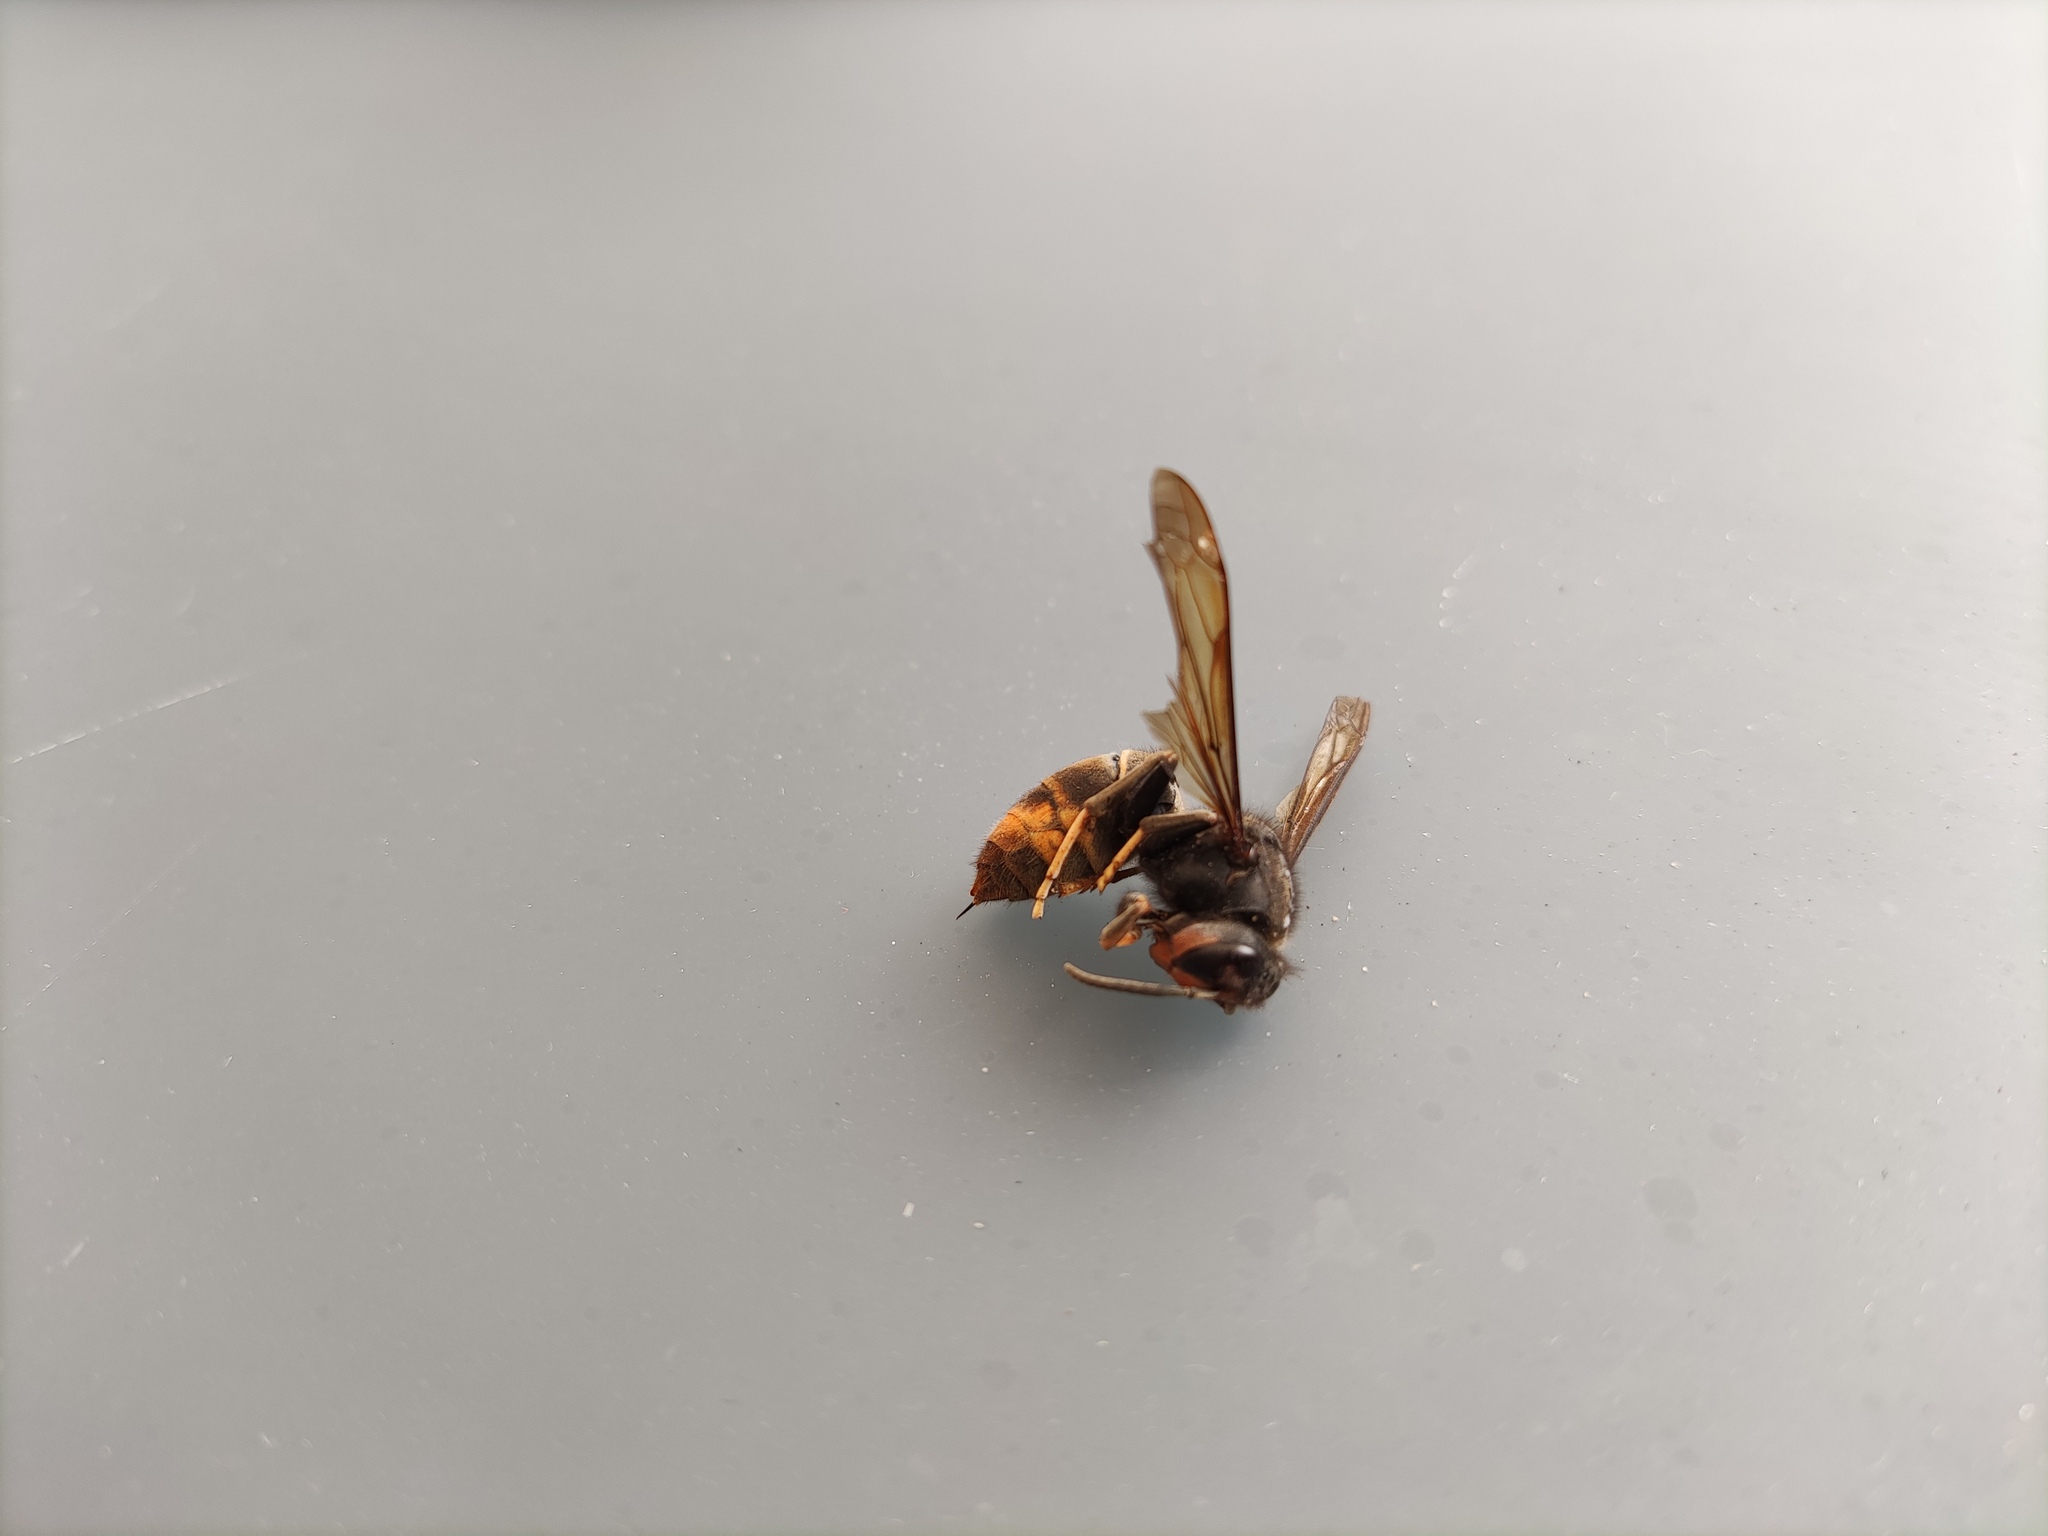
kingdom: Animalia
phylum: Arthropoda
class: Insecta
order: Hymenoptera
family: Vespidae
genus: Vespa
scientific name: Vespa velutina
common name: Asian hornet
